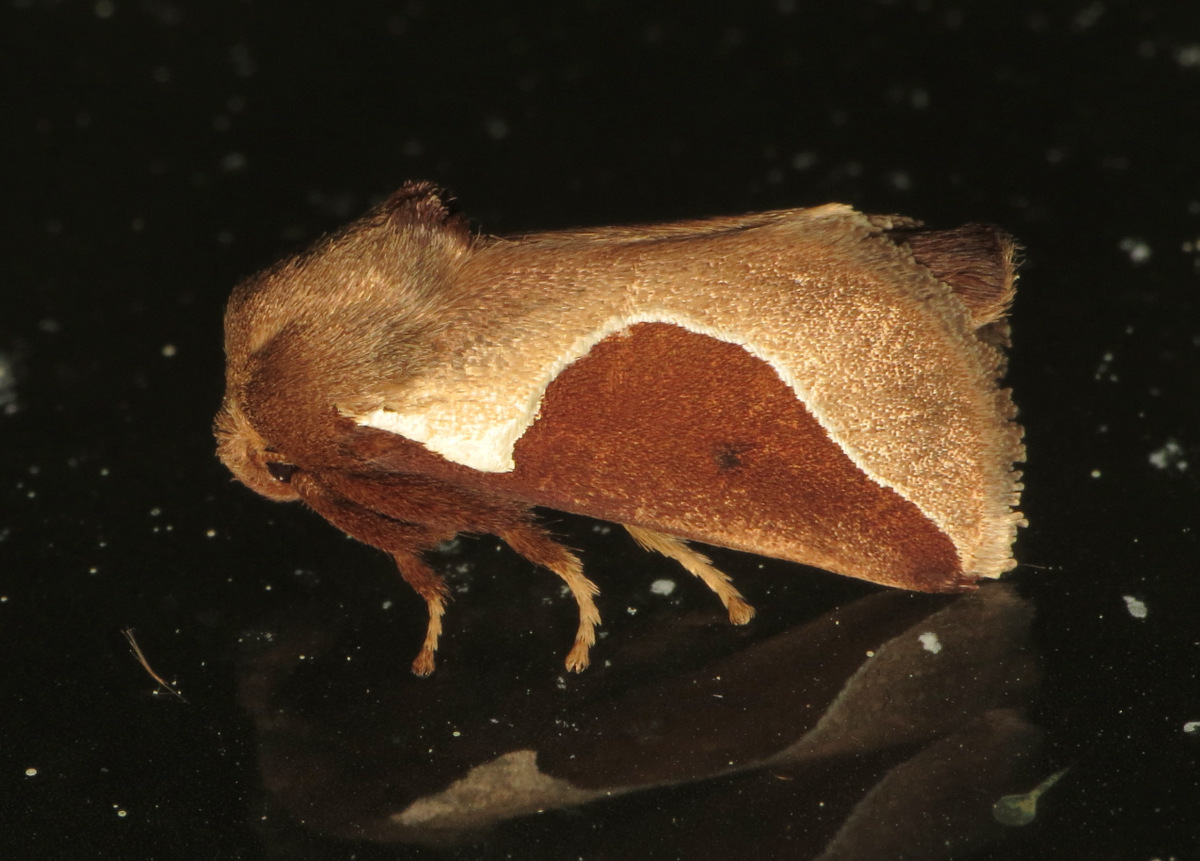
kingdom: Animalia
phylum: Arthropoda
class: Insecta
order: Lepidoptera
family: Limacodidae
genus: Prolimacodes
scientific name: Prolimacodes badia
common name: Skiff moth
